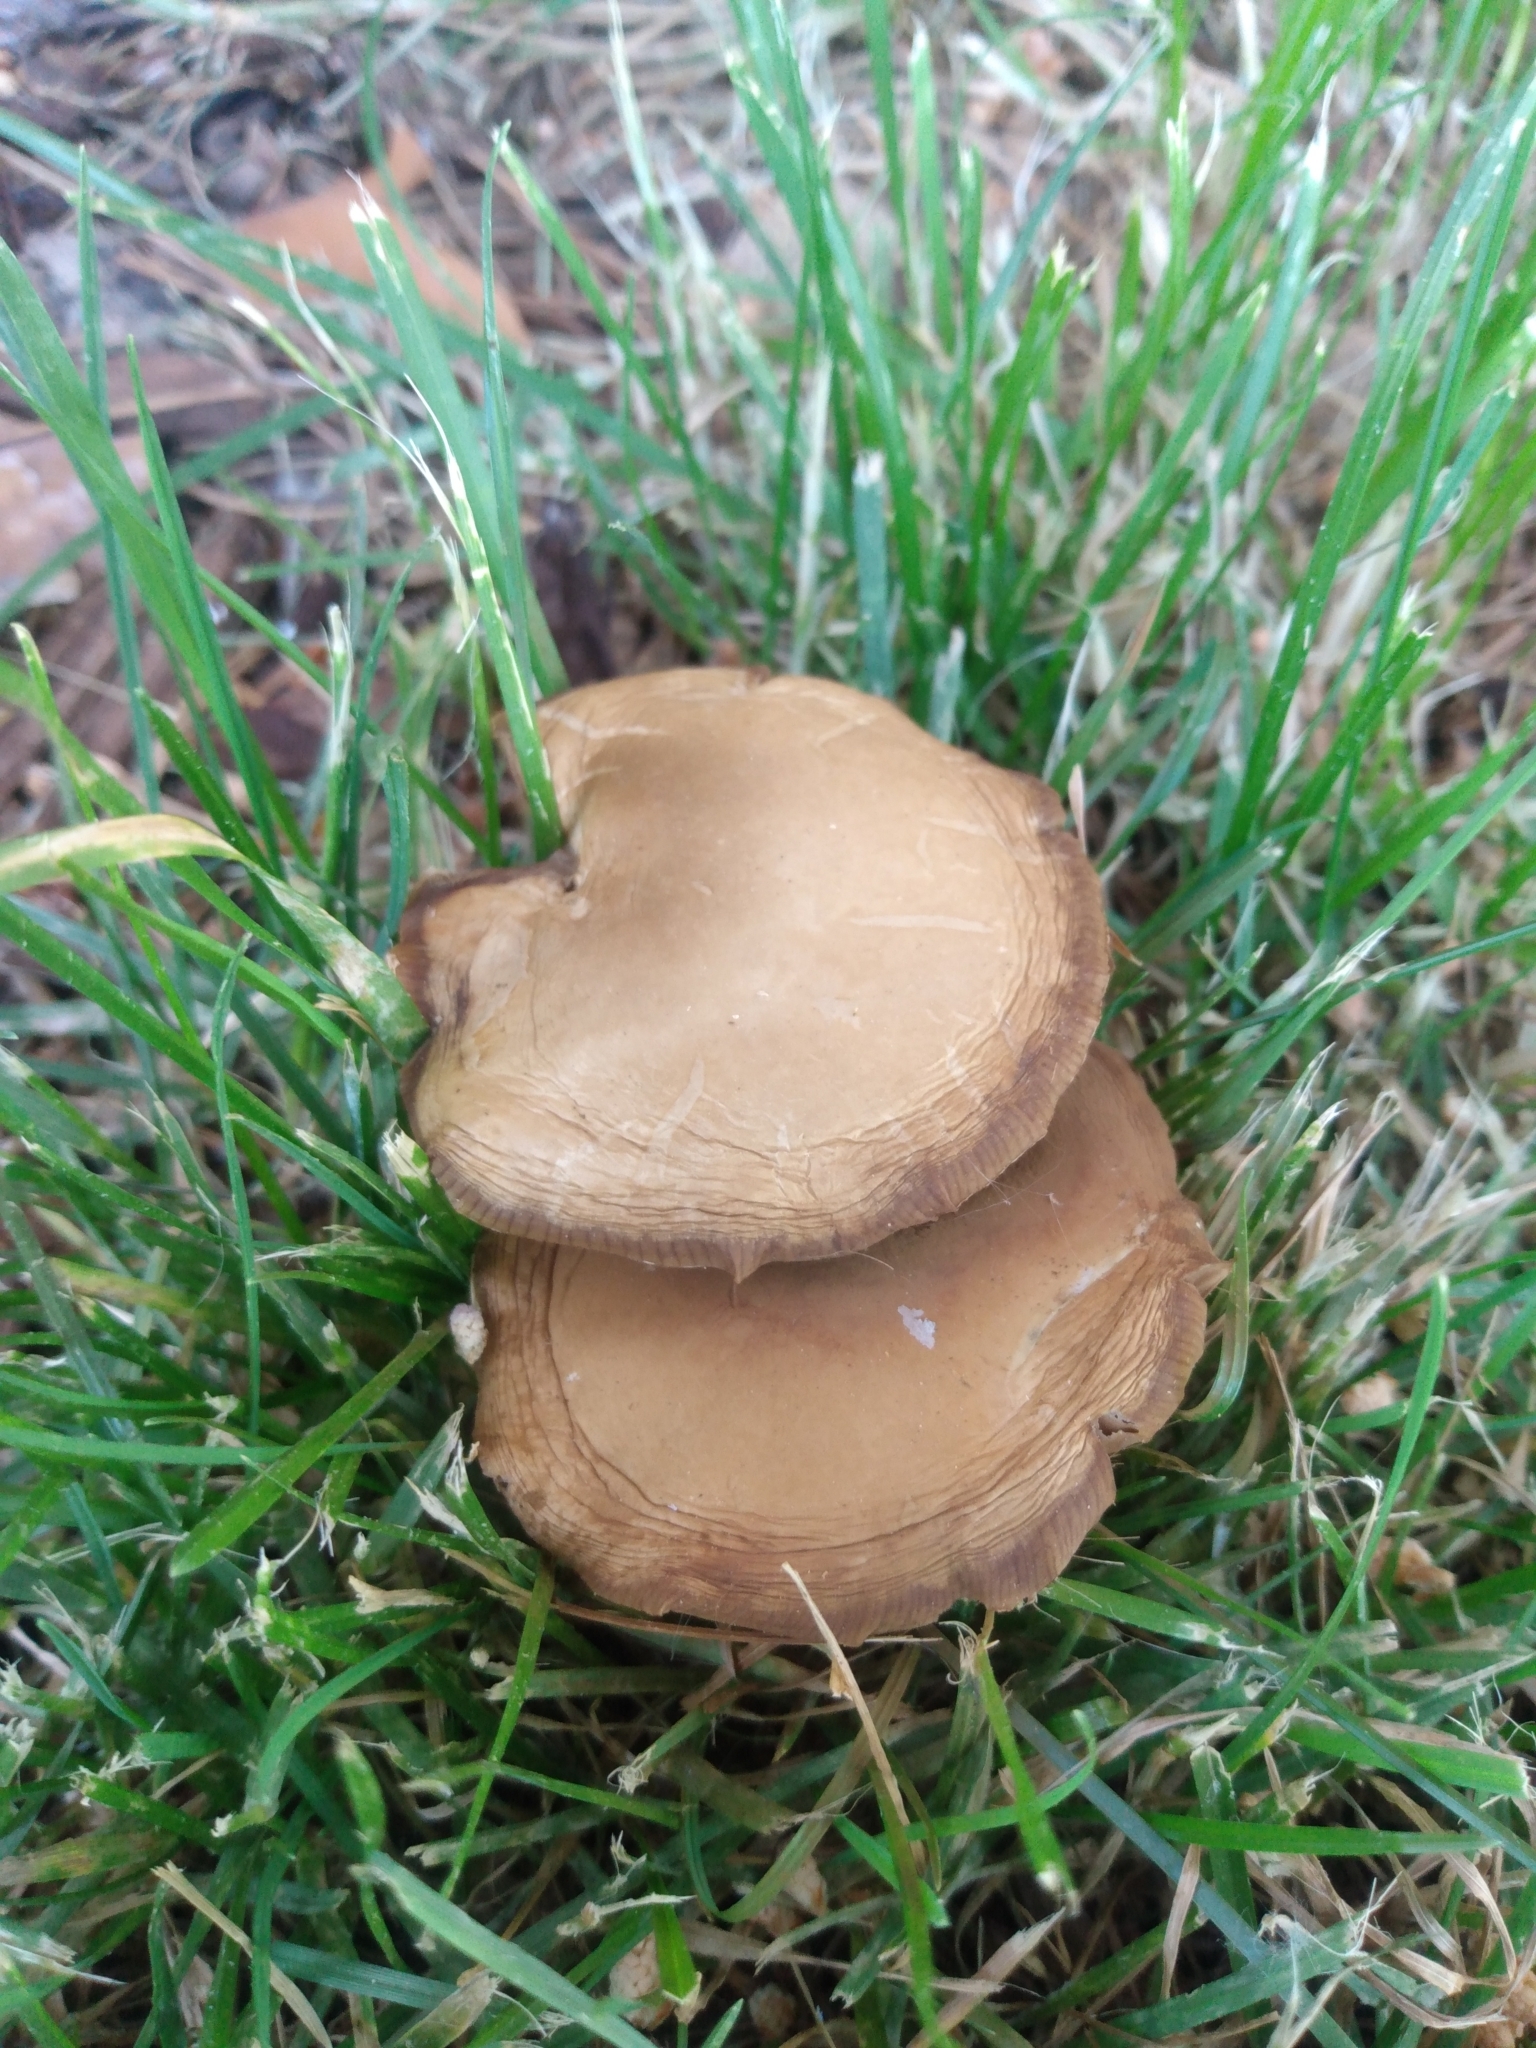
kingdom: Fungi
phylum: Basidiomycota
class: Agaricomycetes
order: Agaricales
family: Strophariaceae
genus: Agrocybe
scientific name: Agrocybe praecox
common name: Spring fieldcap
